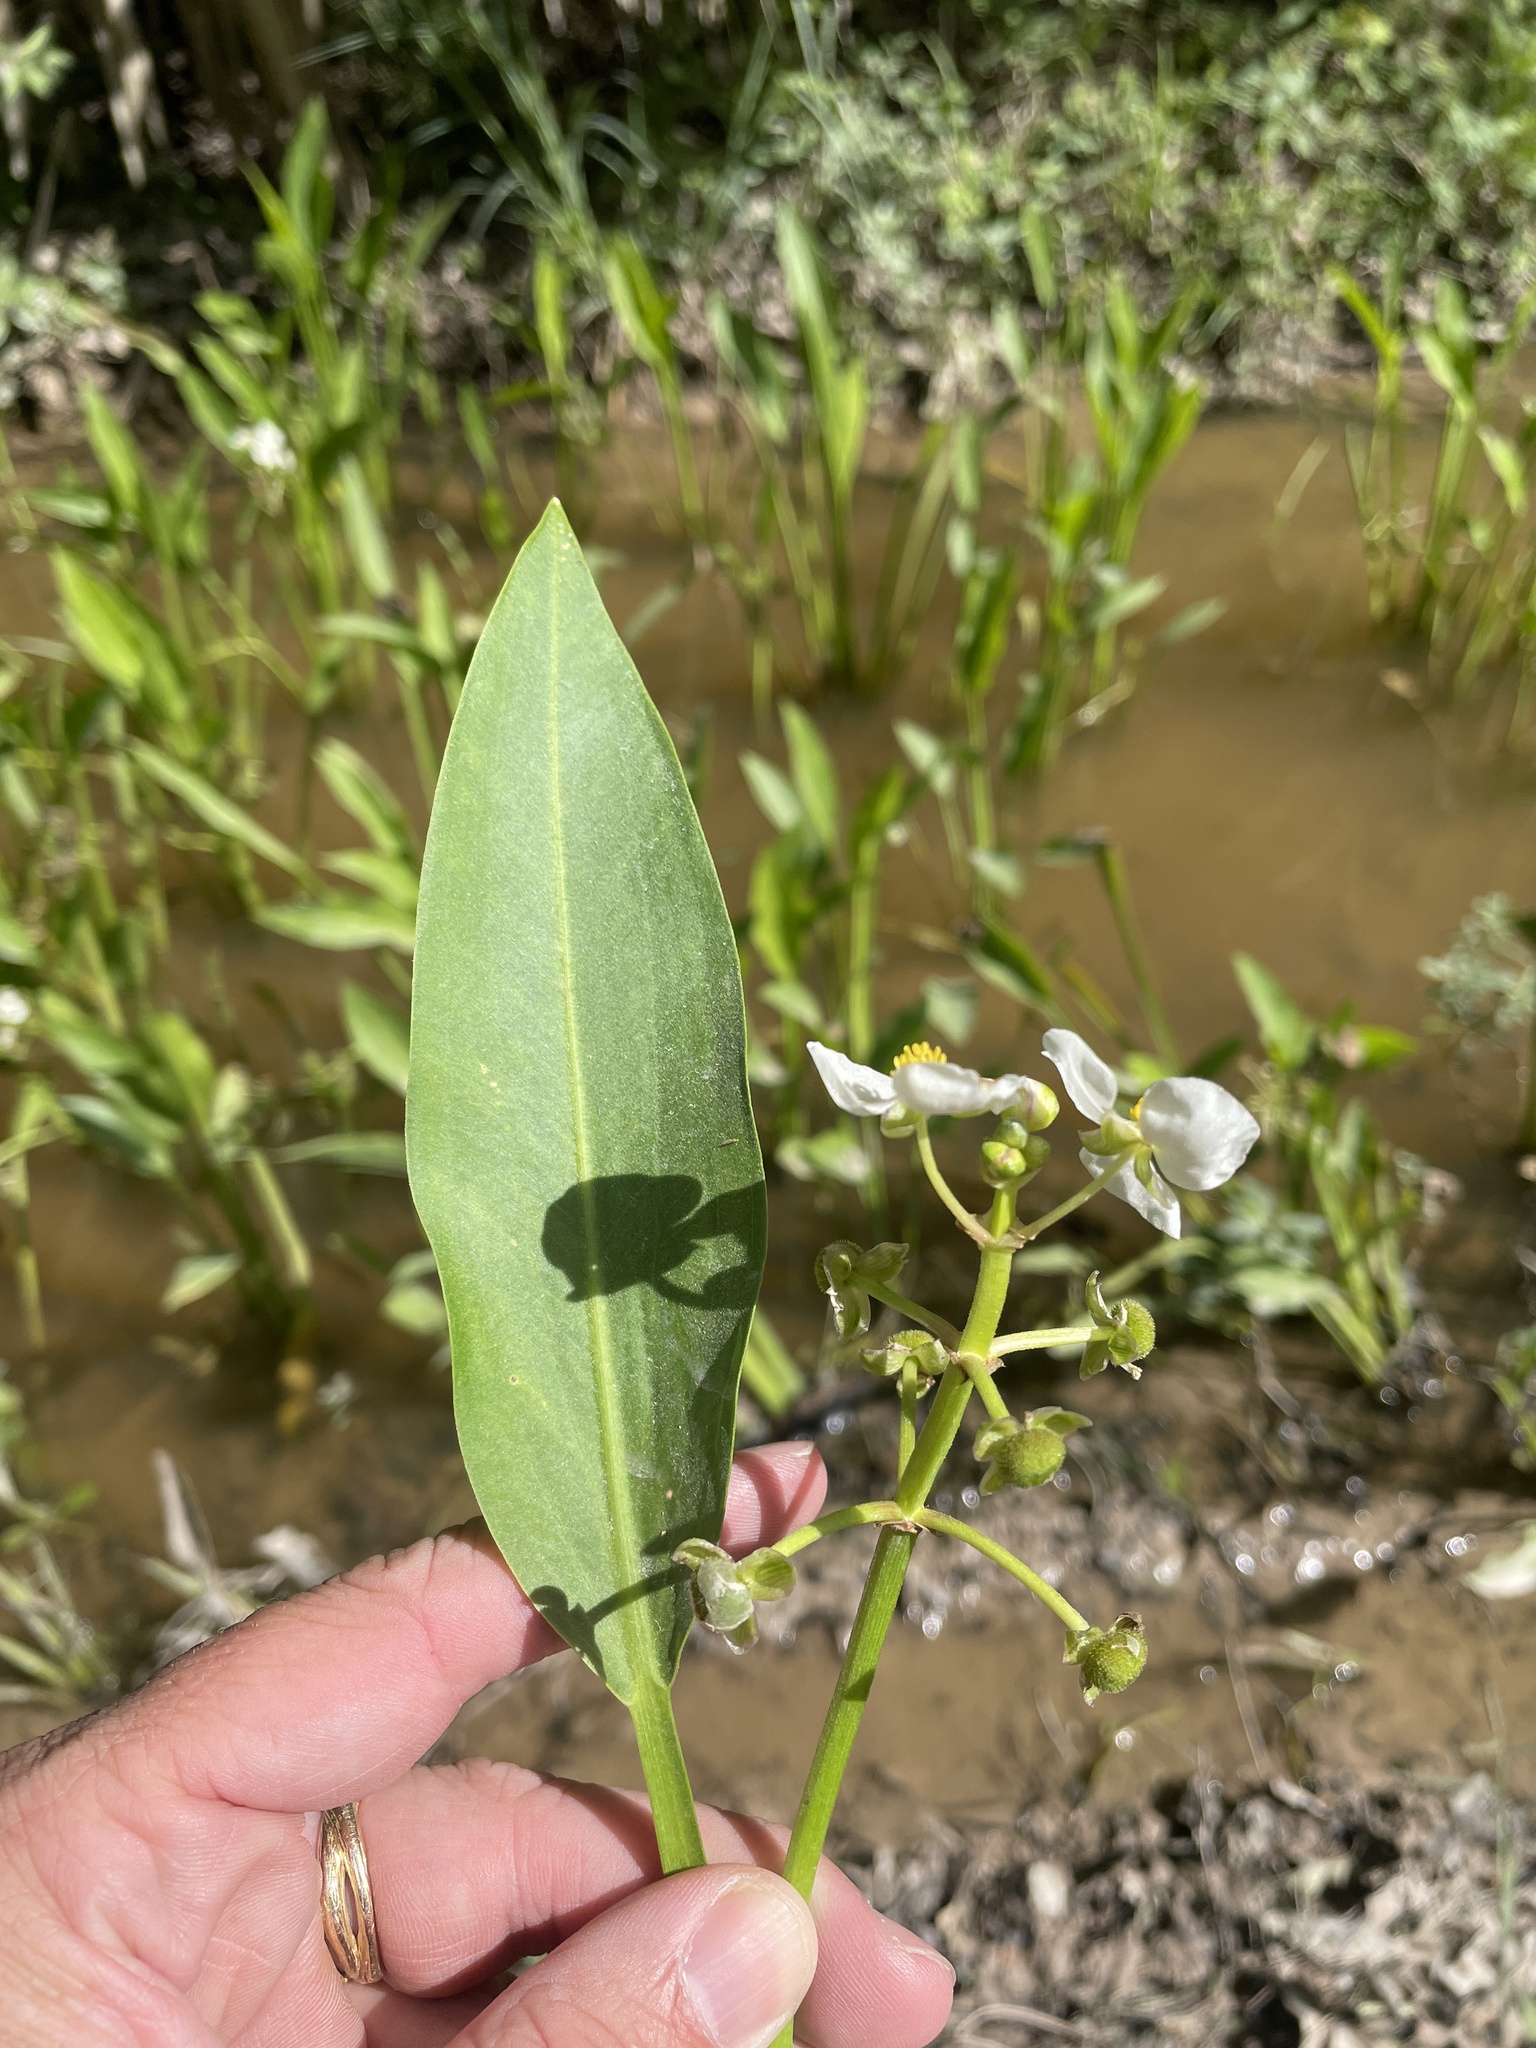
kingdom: Plantae
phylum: Tracheophyta
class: Liliopsida
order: Alismatales
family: Alismataceae
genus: Sagittaria
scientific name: Sagittaria platyphylla
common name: Broad-leaf arrowhead
